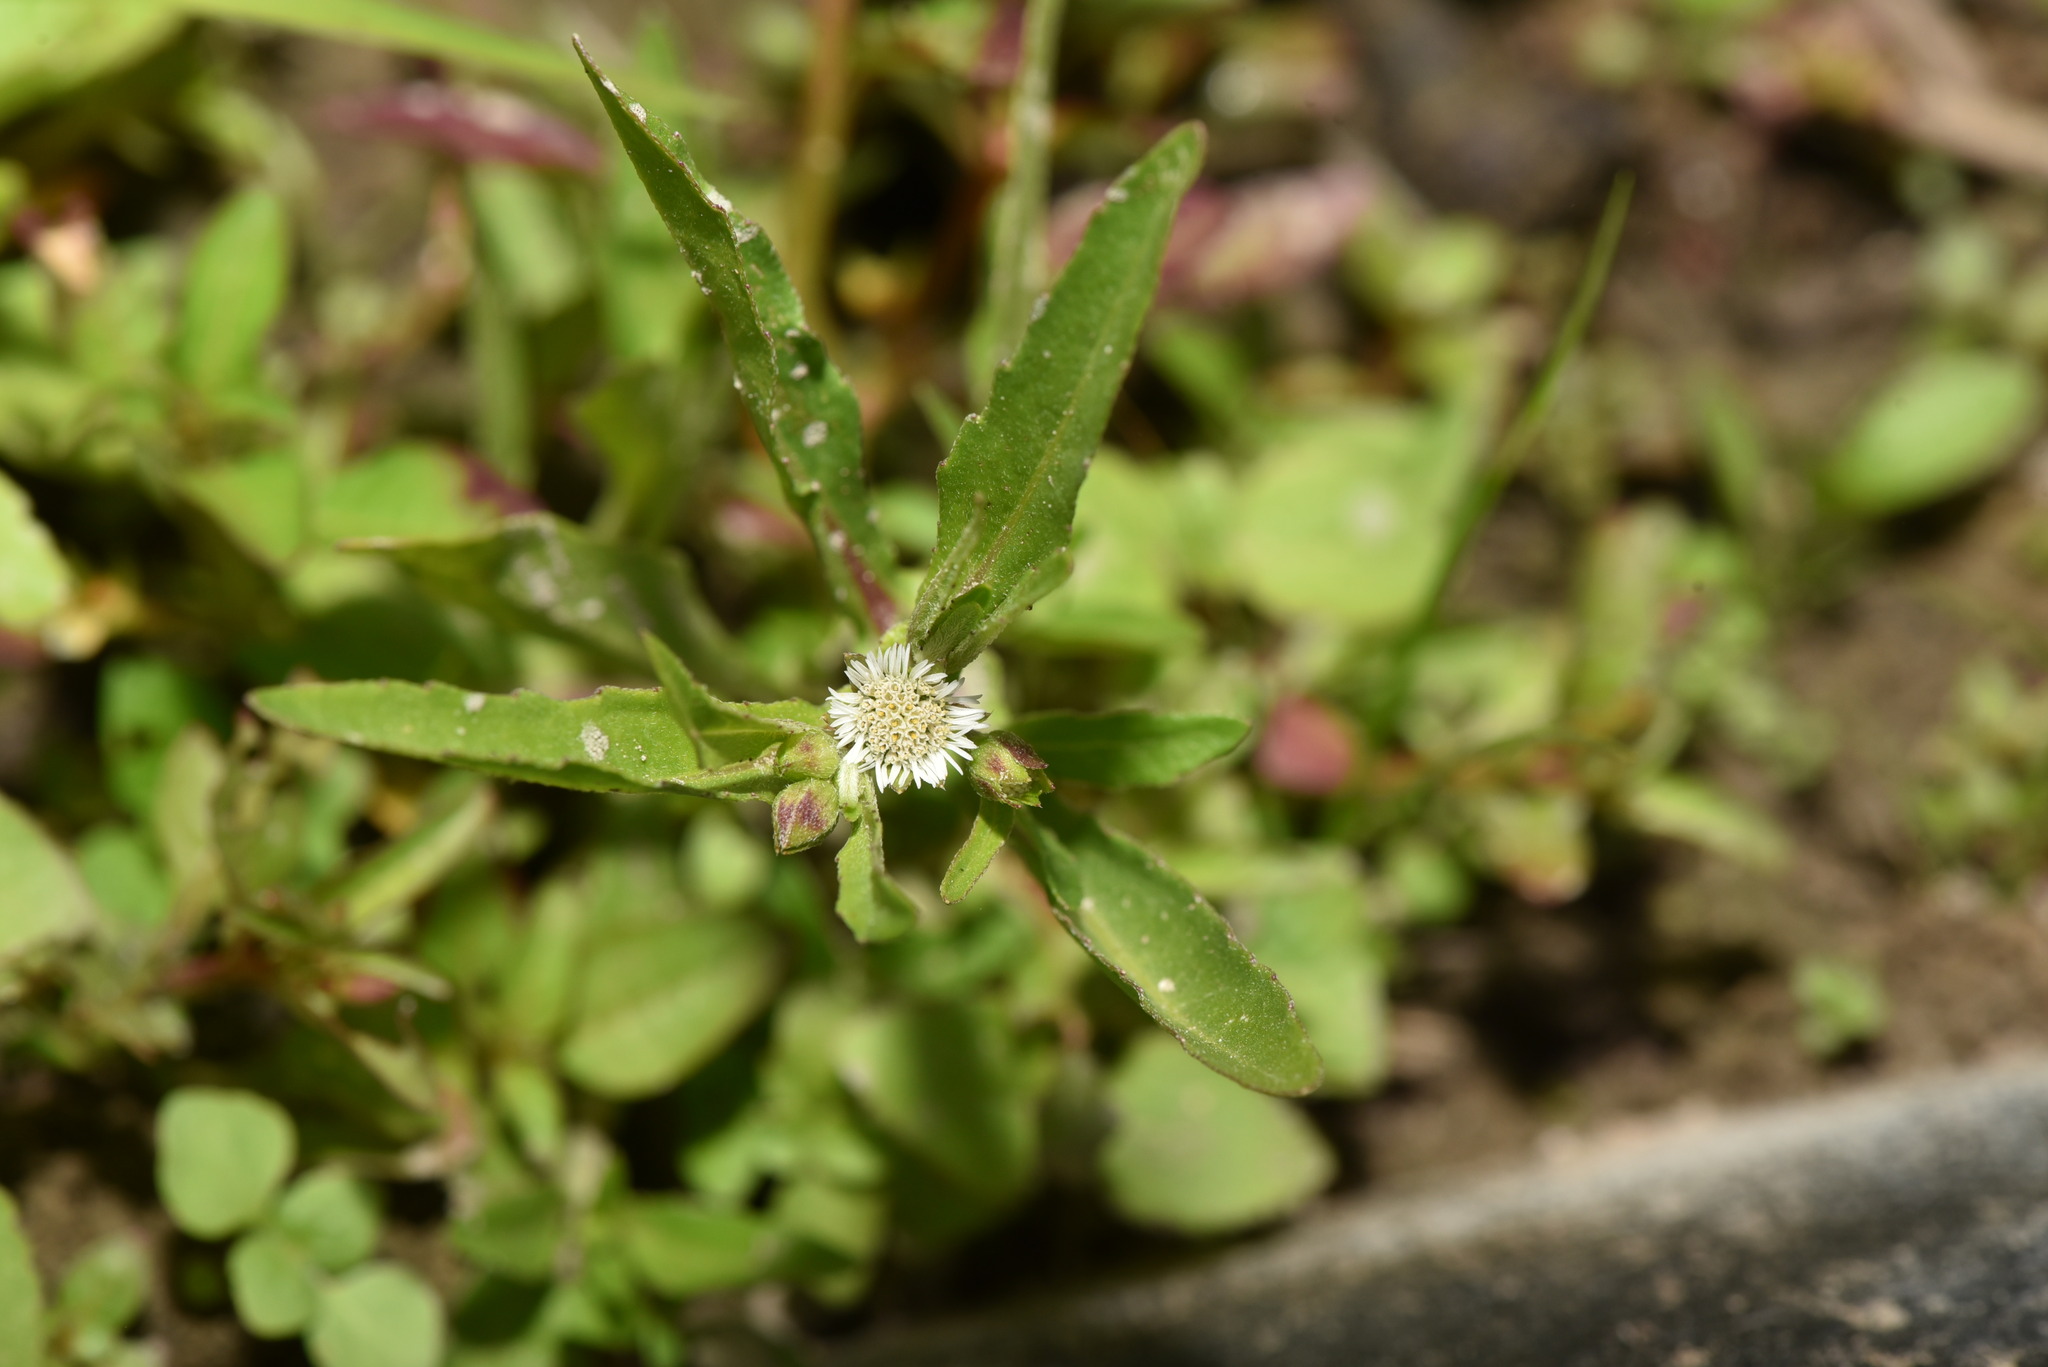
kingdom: Plantae
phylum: Tracheophyta
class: Magnoliopsida
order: Asterales
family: Asteraceae
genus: Eclipta
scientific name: Eclipta prostrata
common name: False daisy
